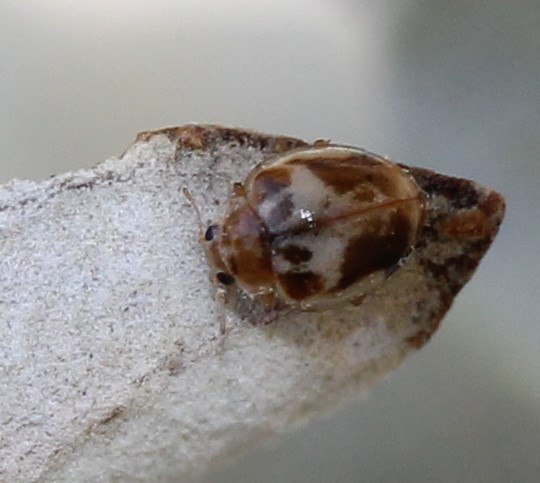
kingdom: Animalia
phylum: Arthropoda
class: Insecta
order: Coleoptera
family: Coccinellidae
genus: Psyllobora
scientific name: Psyllobora renifer
